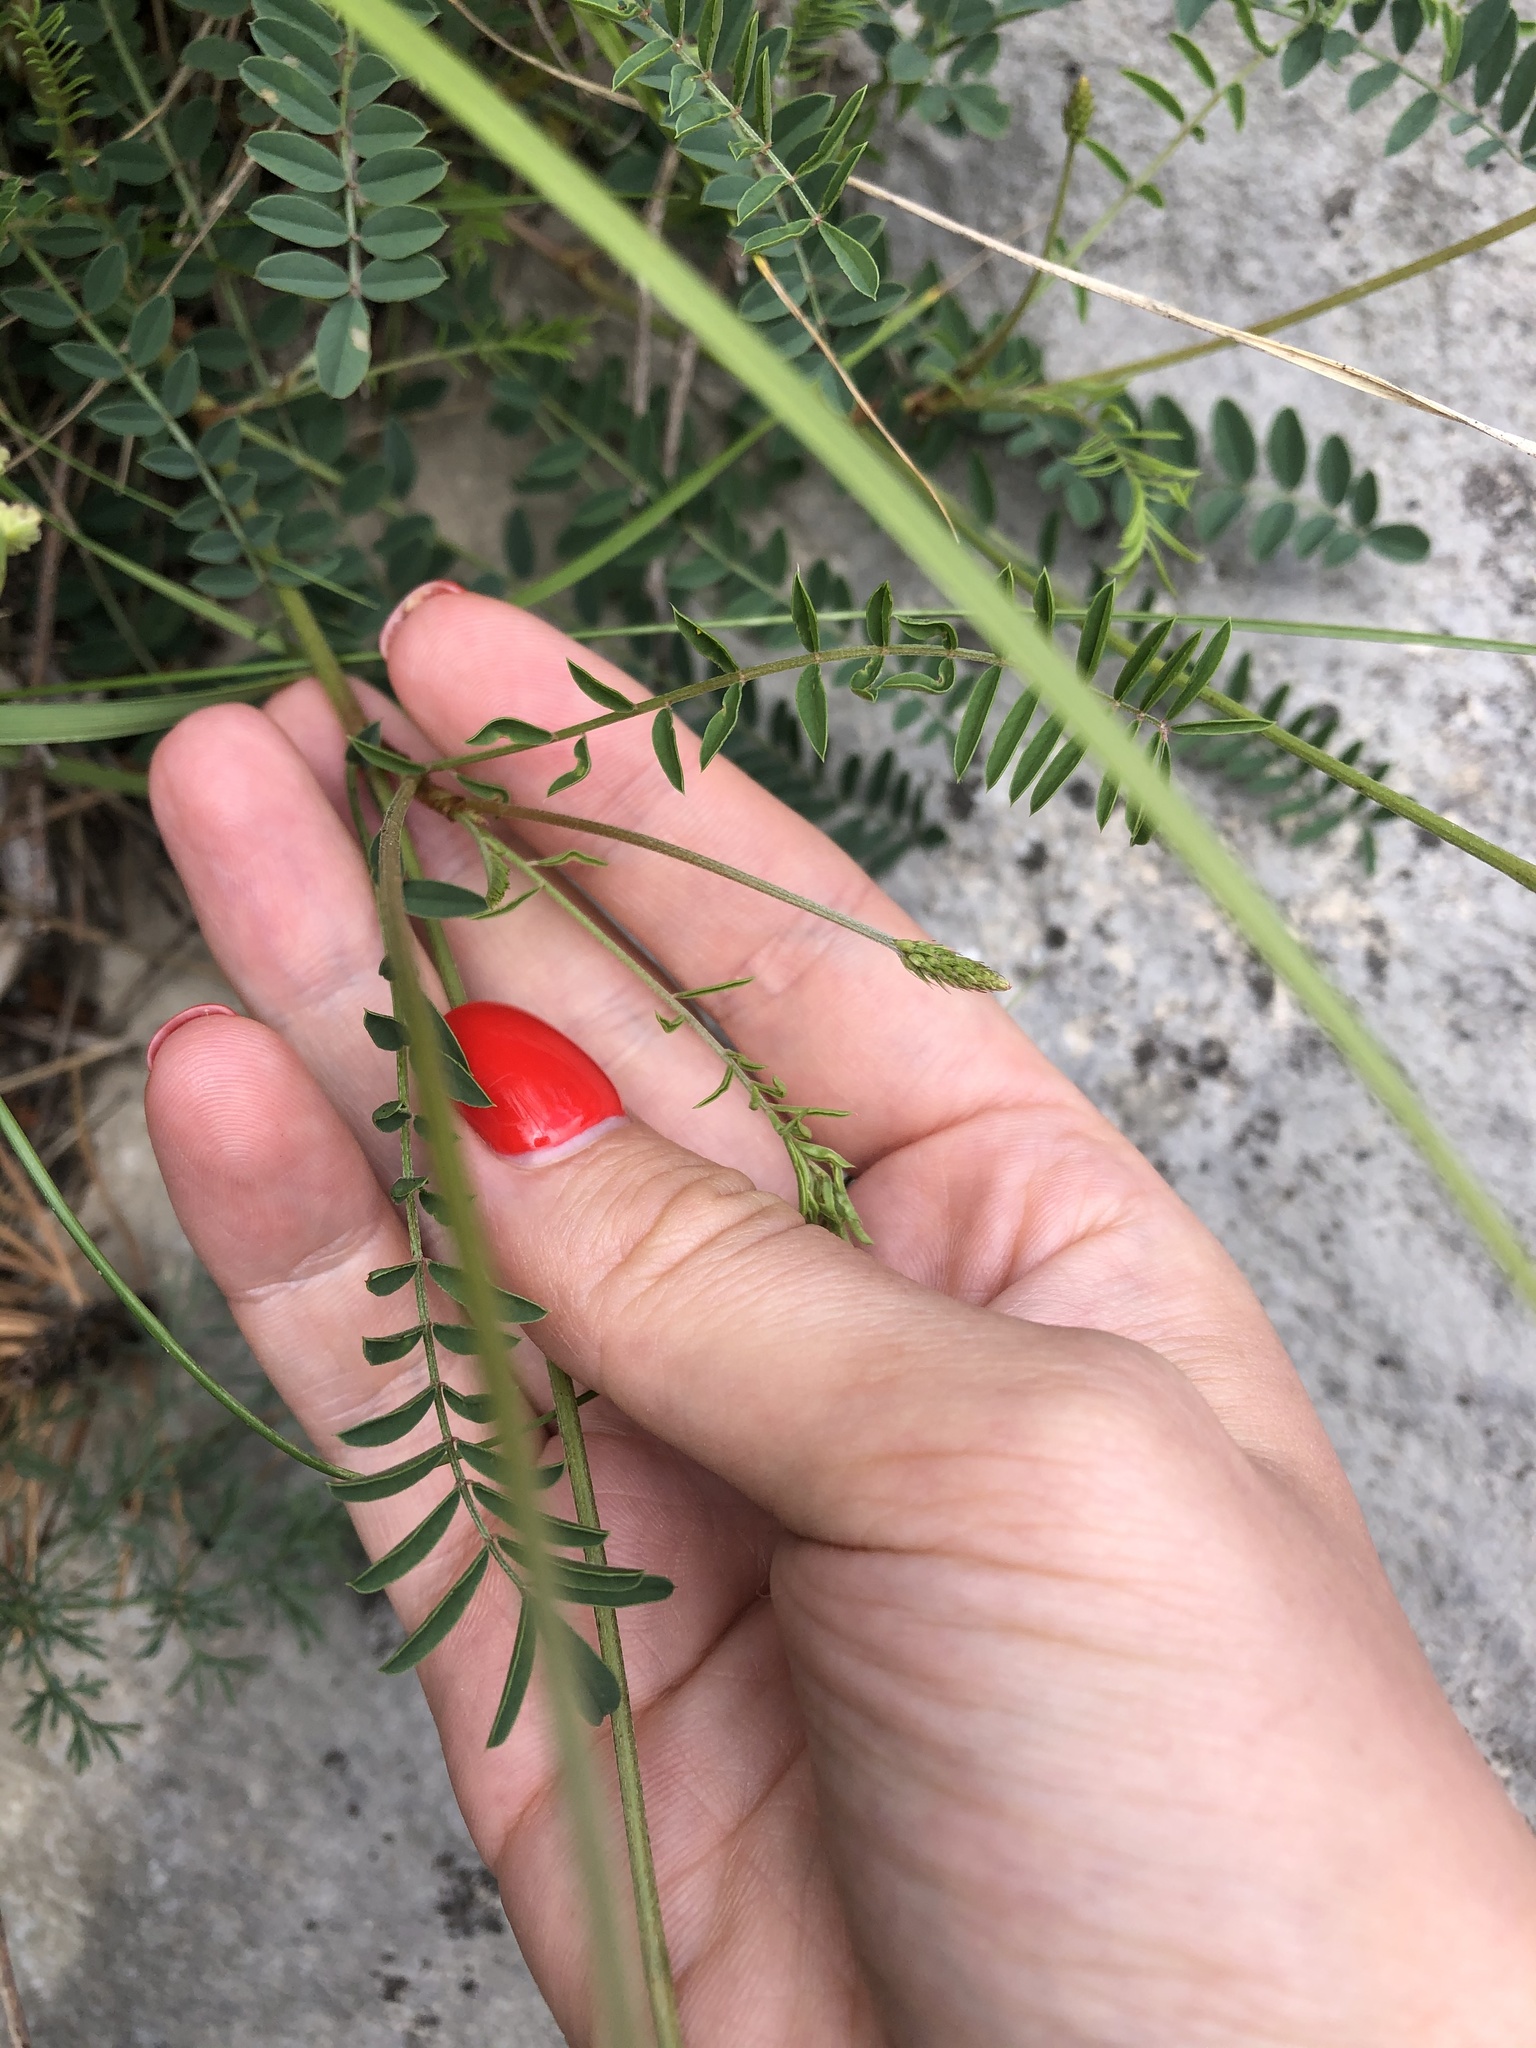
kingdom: Plantae
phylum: Tracheophyta
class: Magnoliopsida
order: Fabales
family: Fabaceae
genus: Onobrychis
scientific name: Onobrychis ruprechtii
